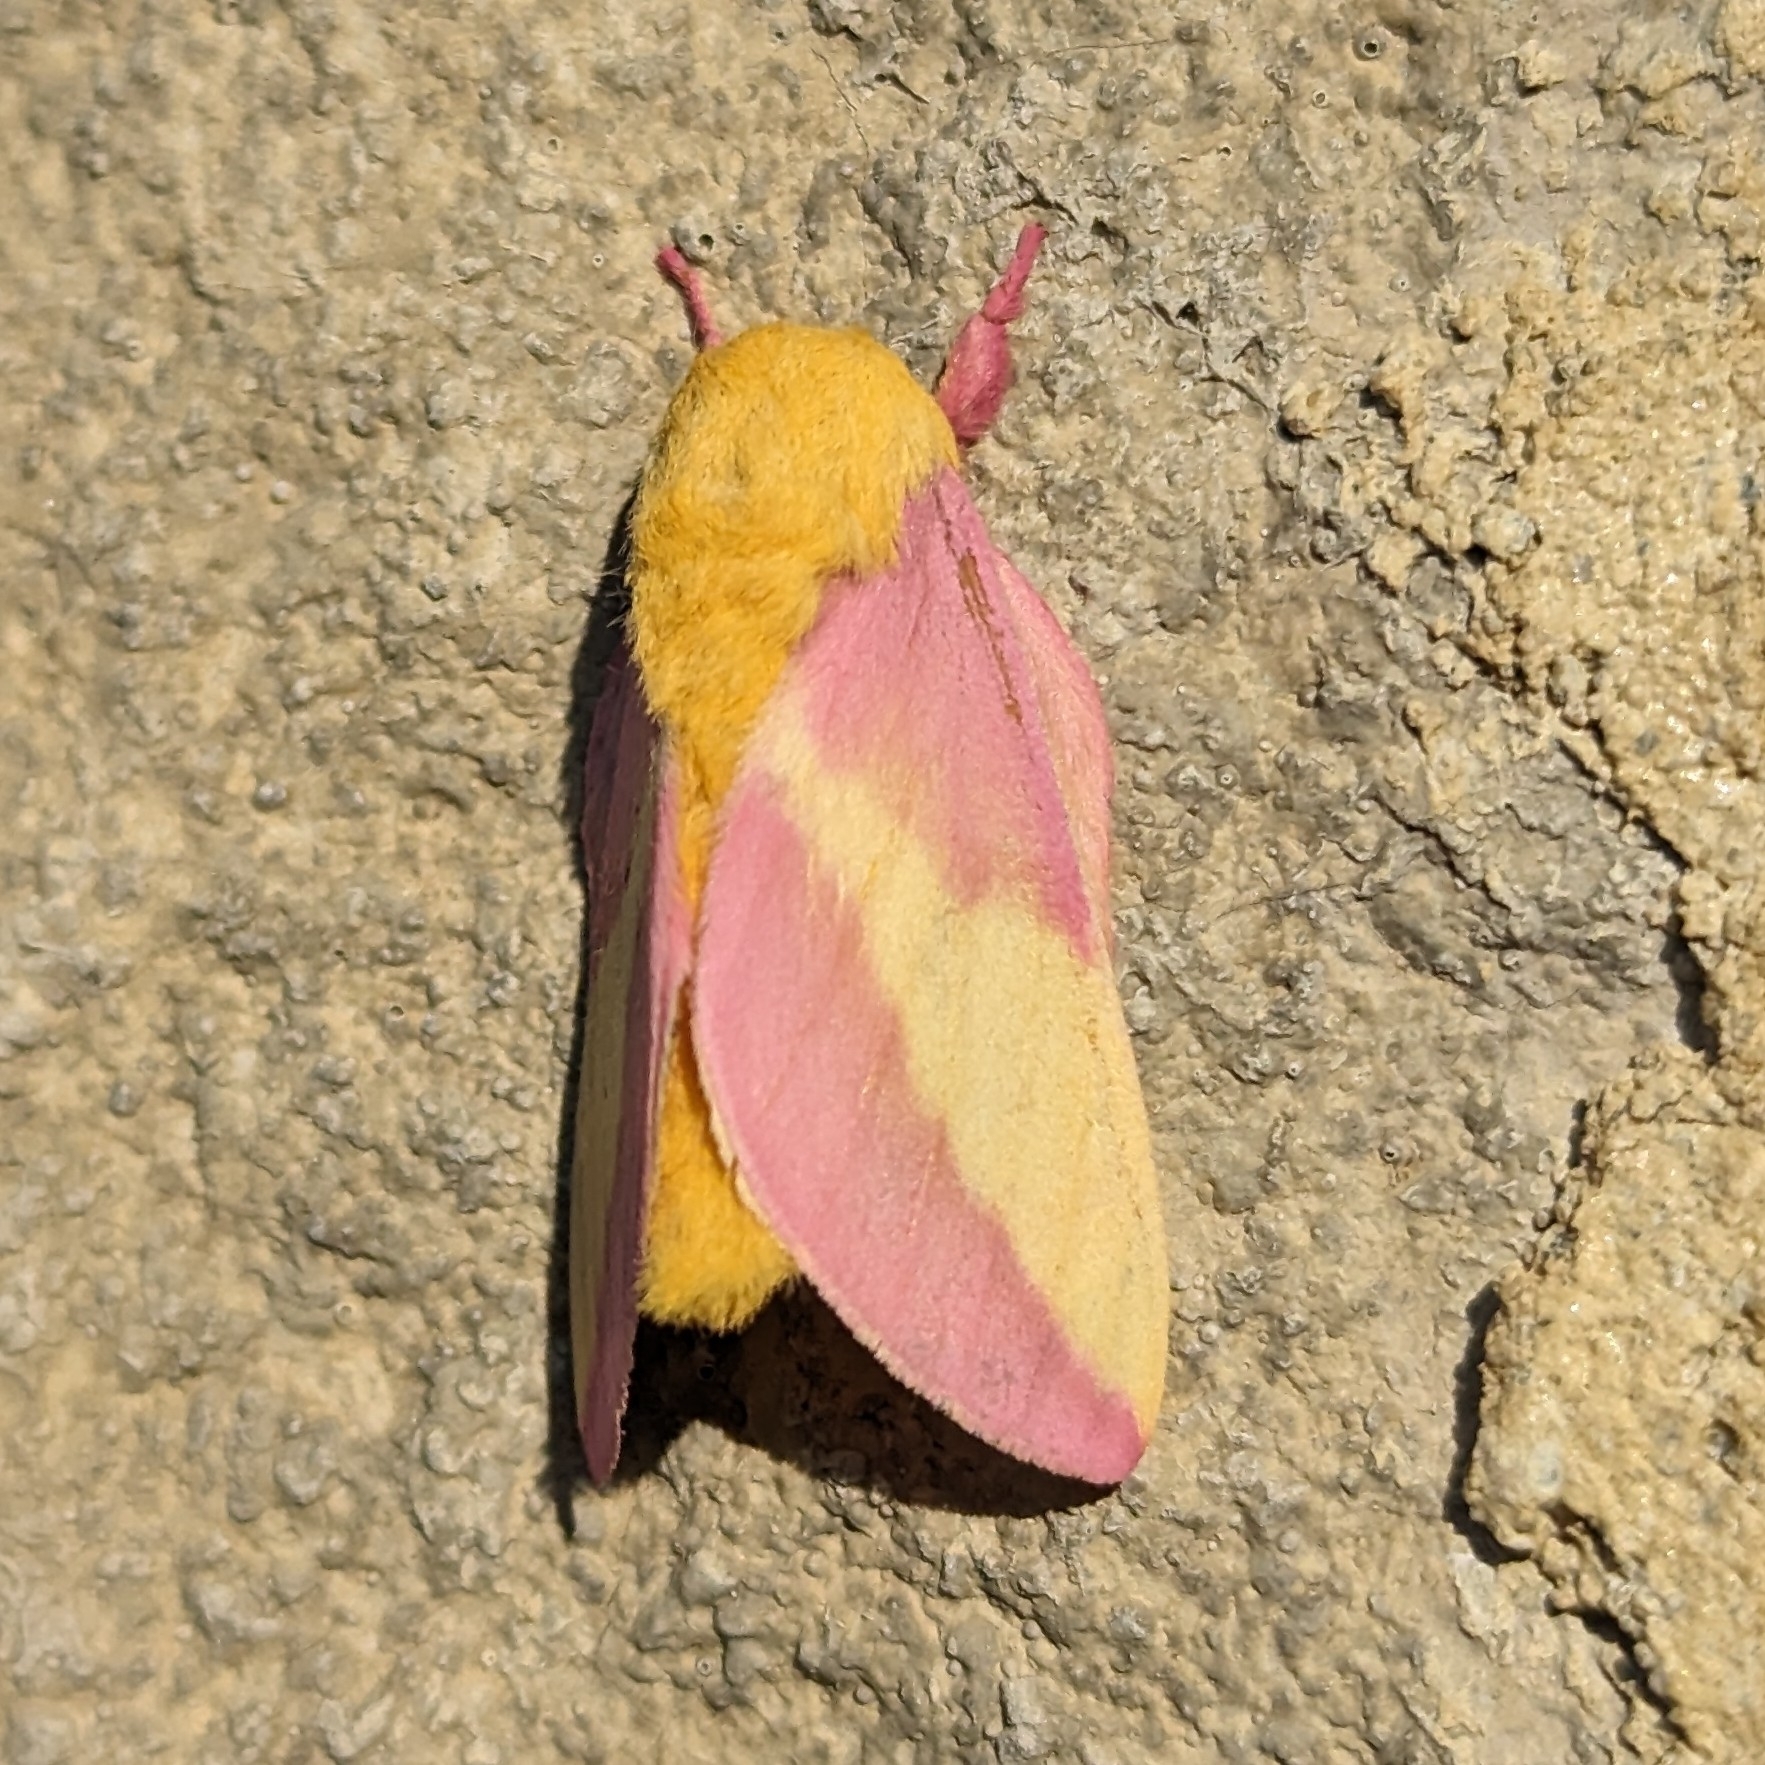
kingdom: Animalia
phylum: Arthropoda
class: Insecta
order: Lepidoptera
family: Saturniidae
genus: Dryocampa
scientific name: Dryocampa rubicunda
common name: Rosy maple moth
